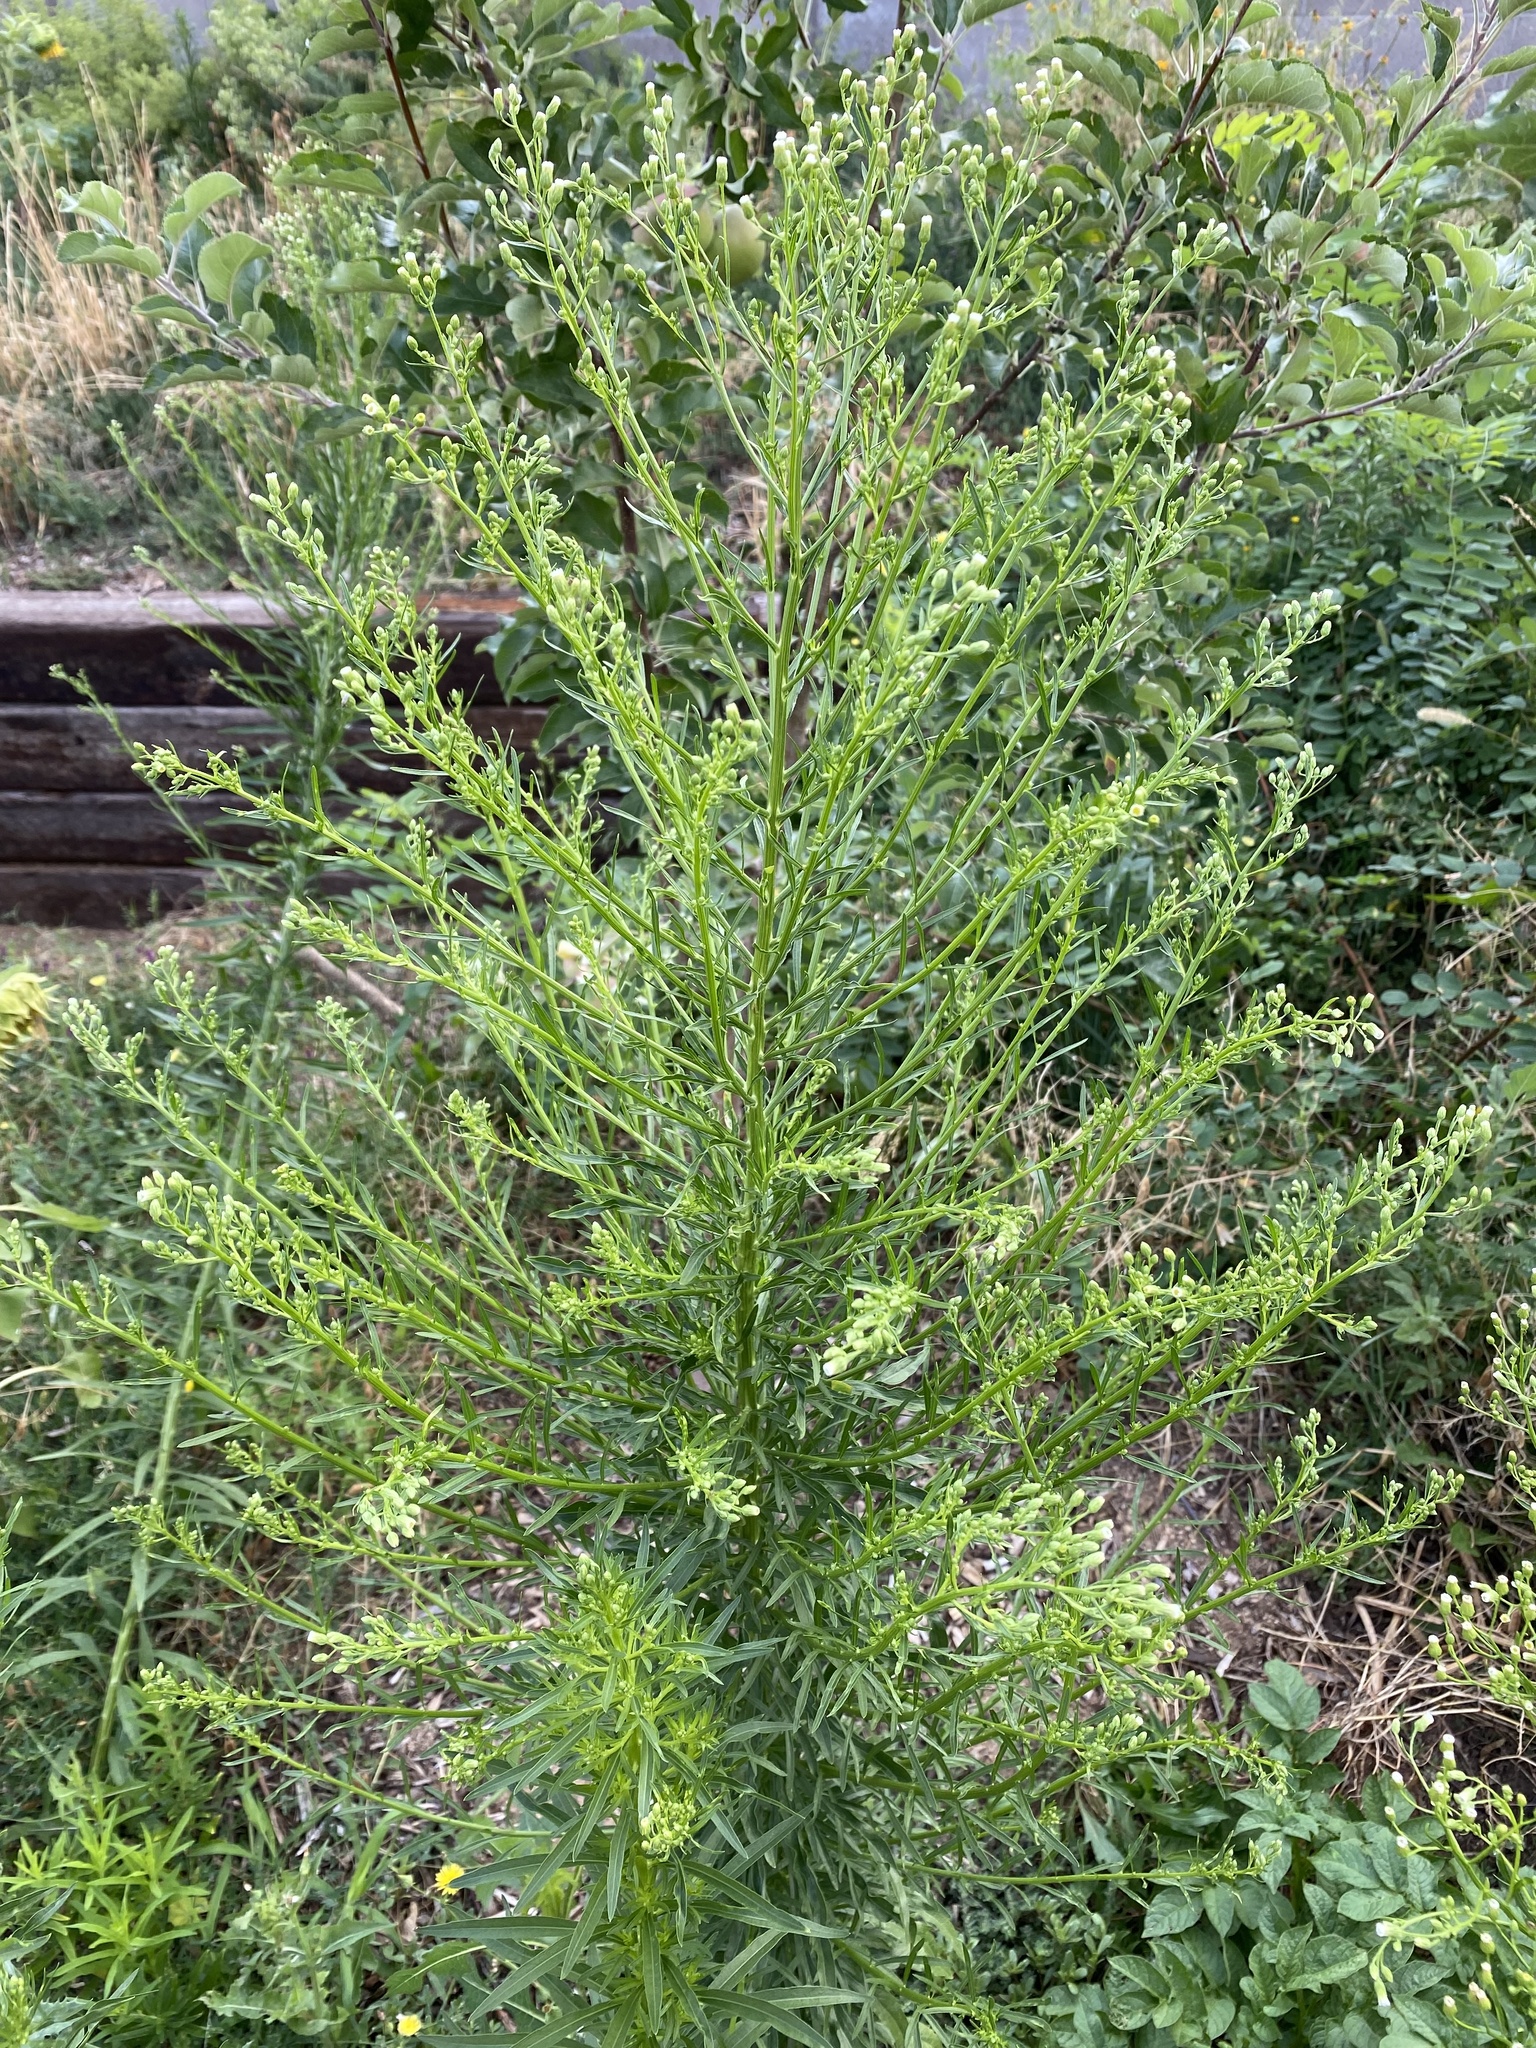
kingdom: Plantae
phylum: Tracheophyta
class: Magnoliopsida
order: Asterales
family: Asteraceae
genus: Erigeron
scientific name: Erigeron canadensis
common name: Canadian fleabane
